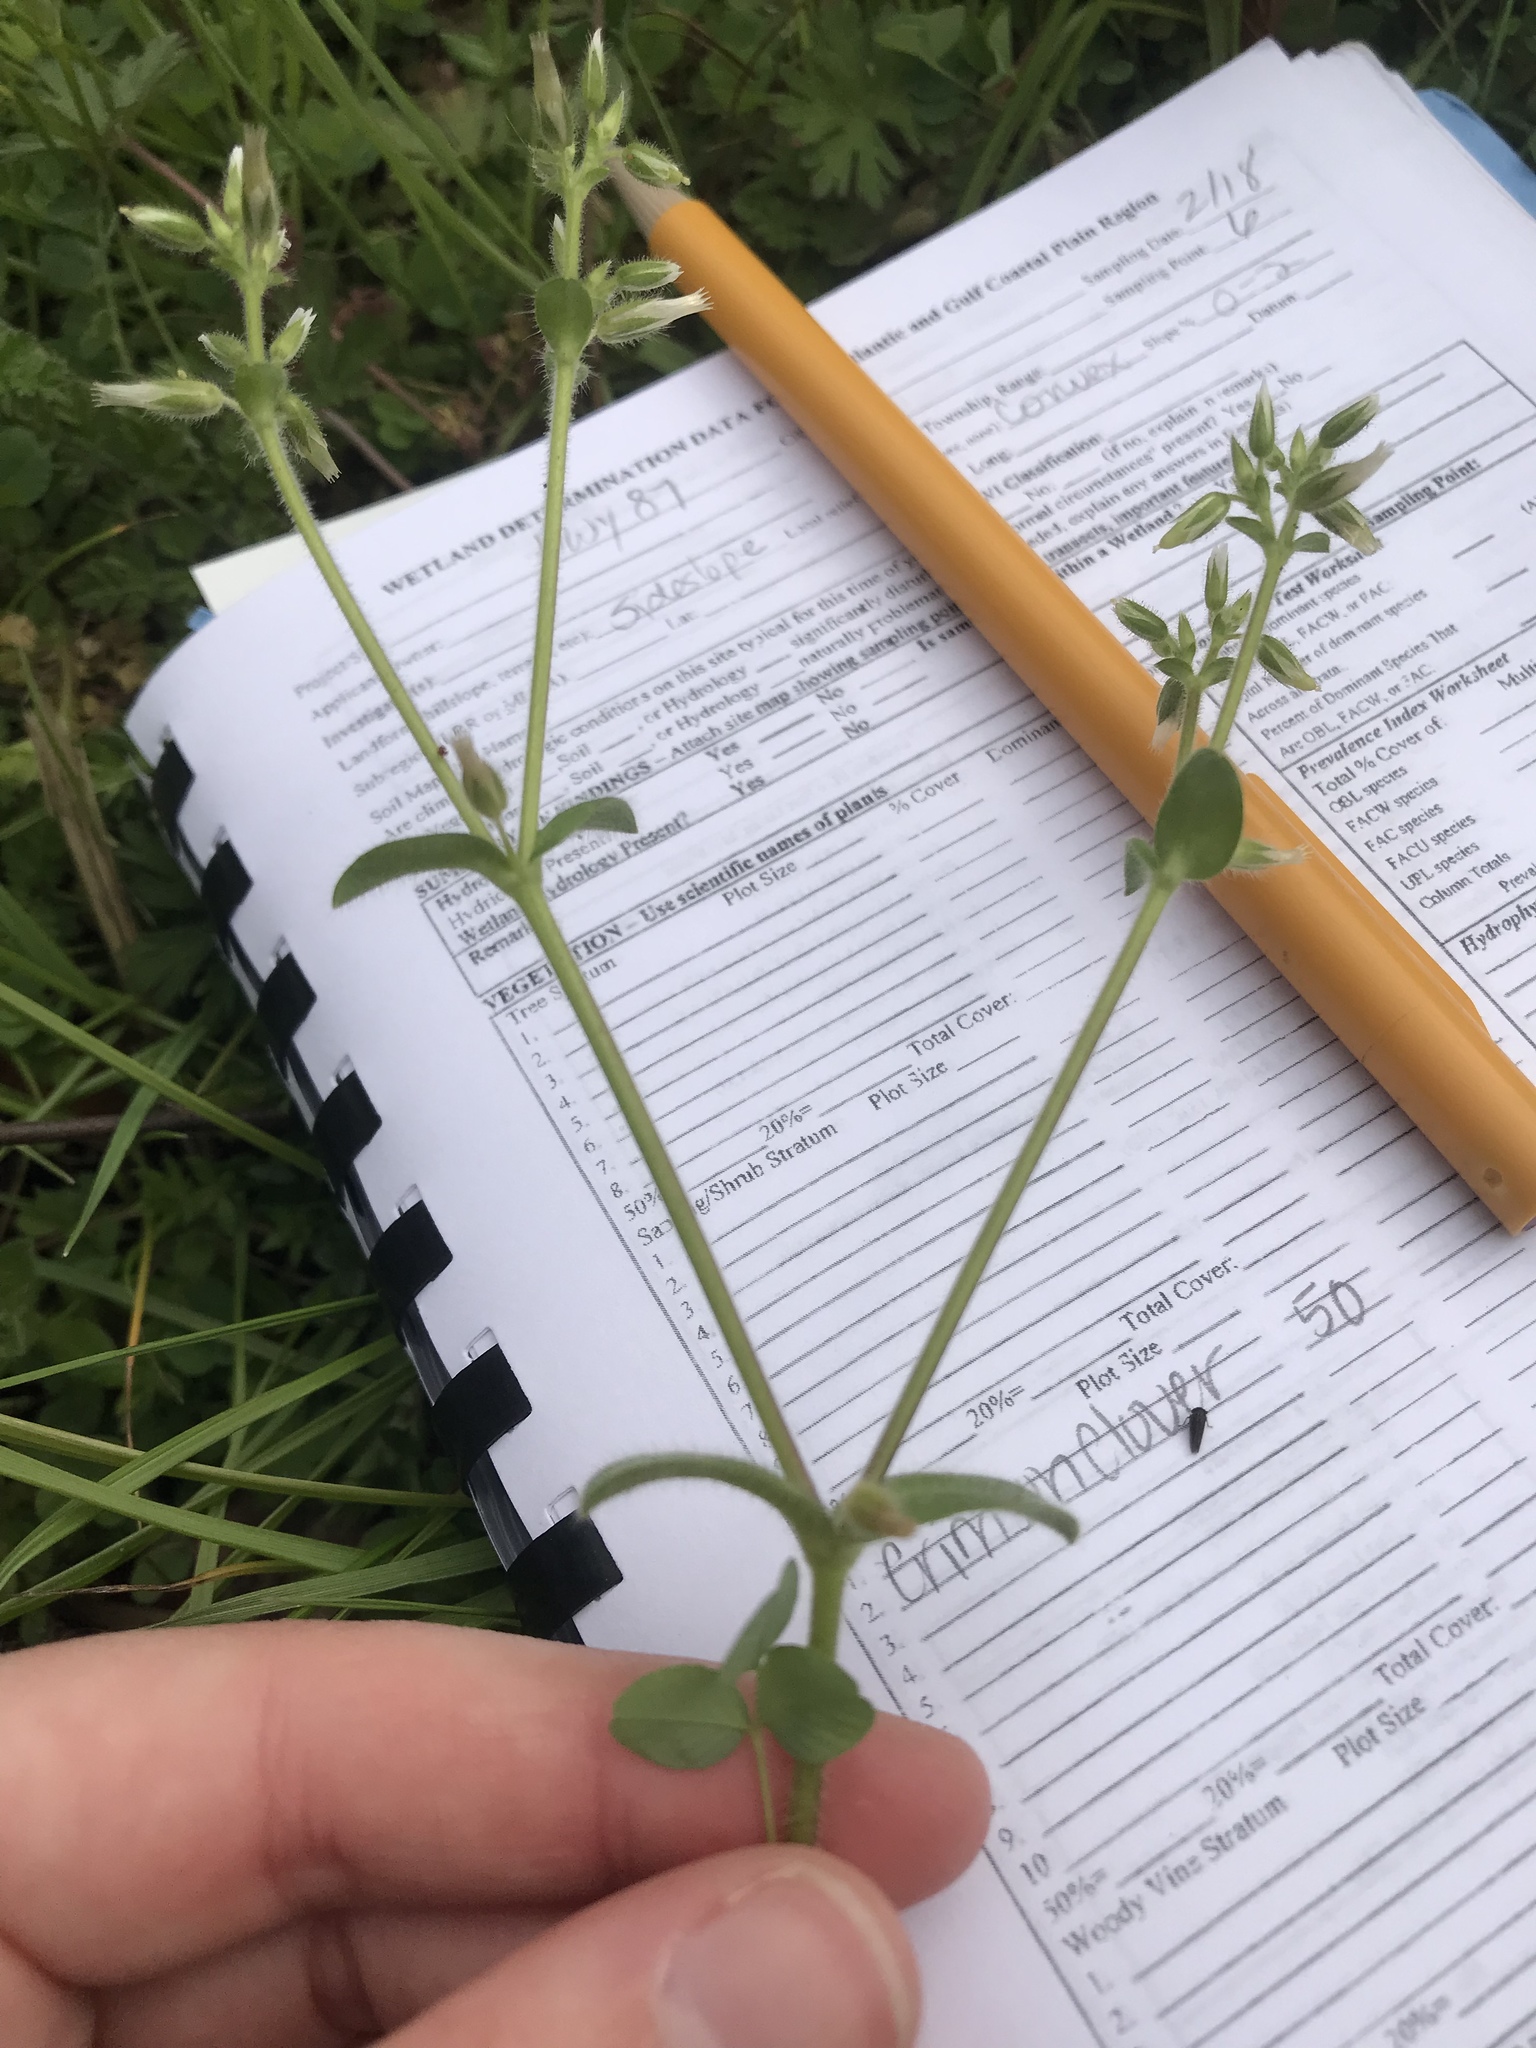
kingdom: Plantae
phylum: Tracheophyta
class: Magnoliopsida
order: Caryophyllales
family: Caryophyllaceae
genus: Cerastium
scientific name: Cerastium glomeratum
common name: Sticky chickweed
